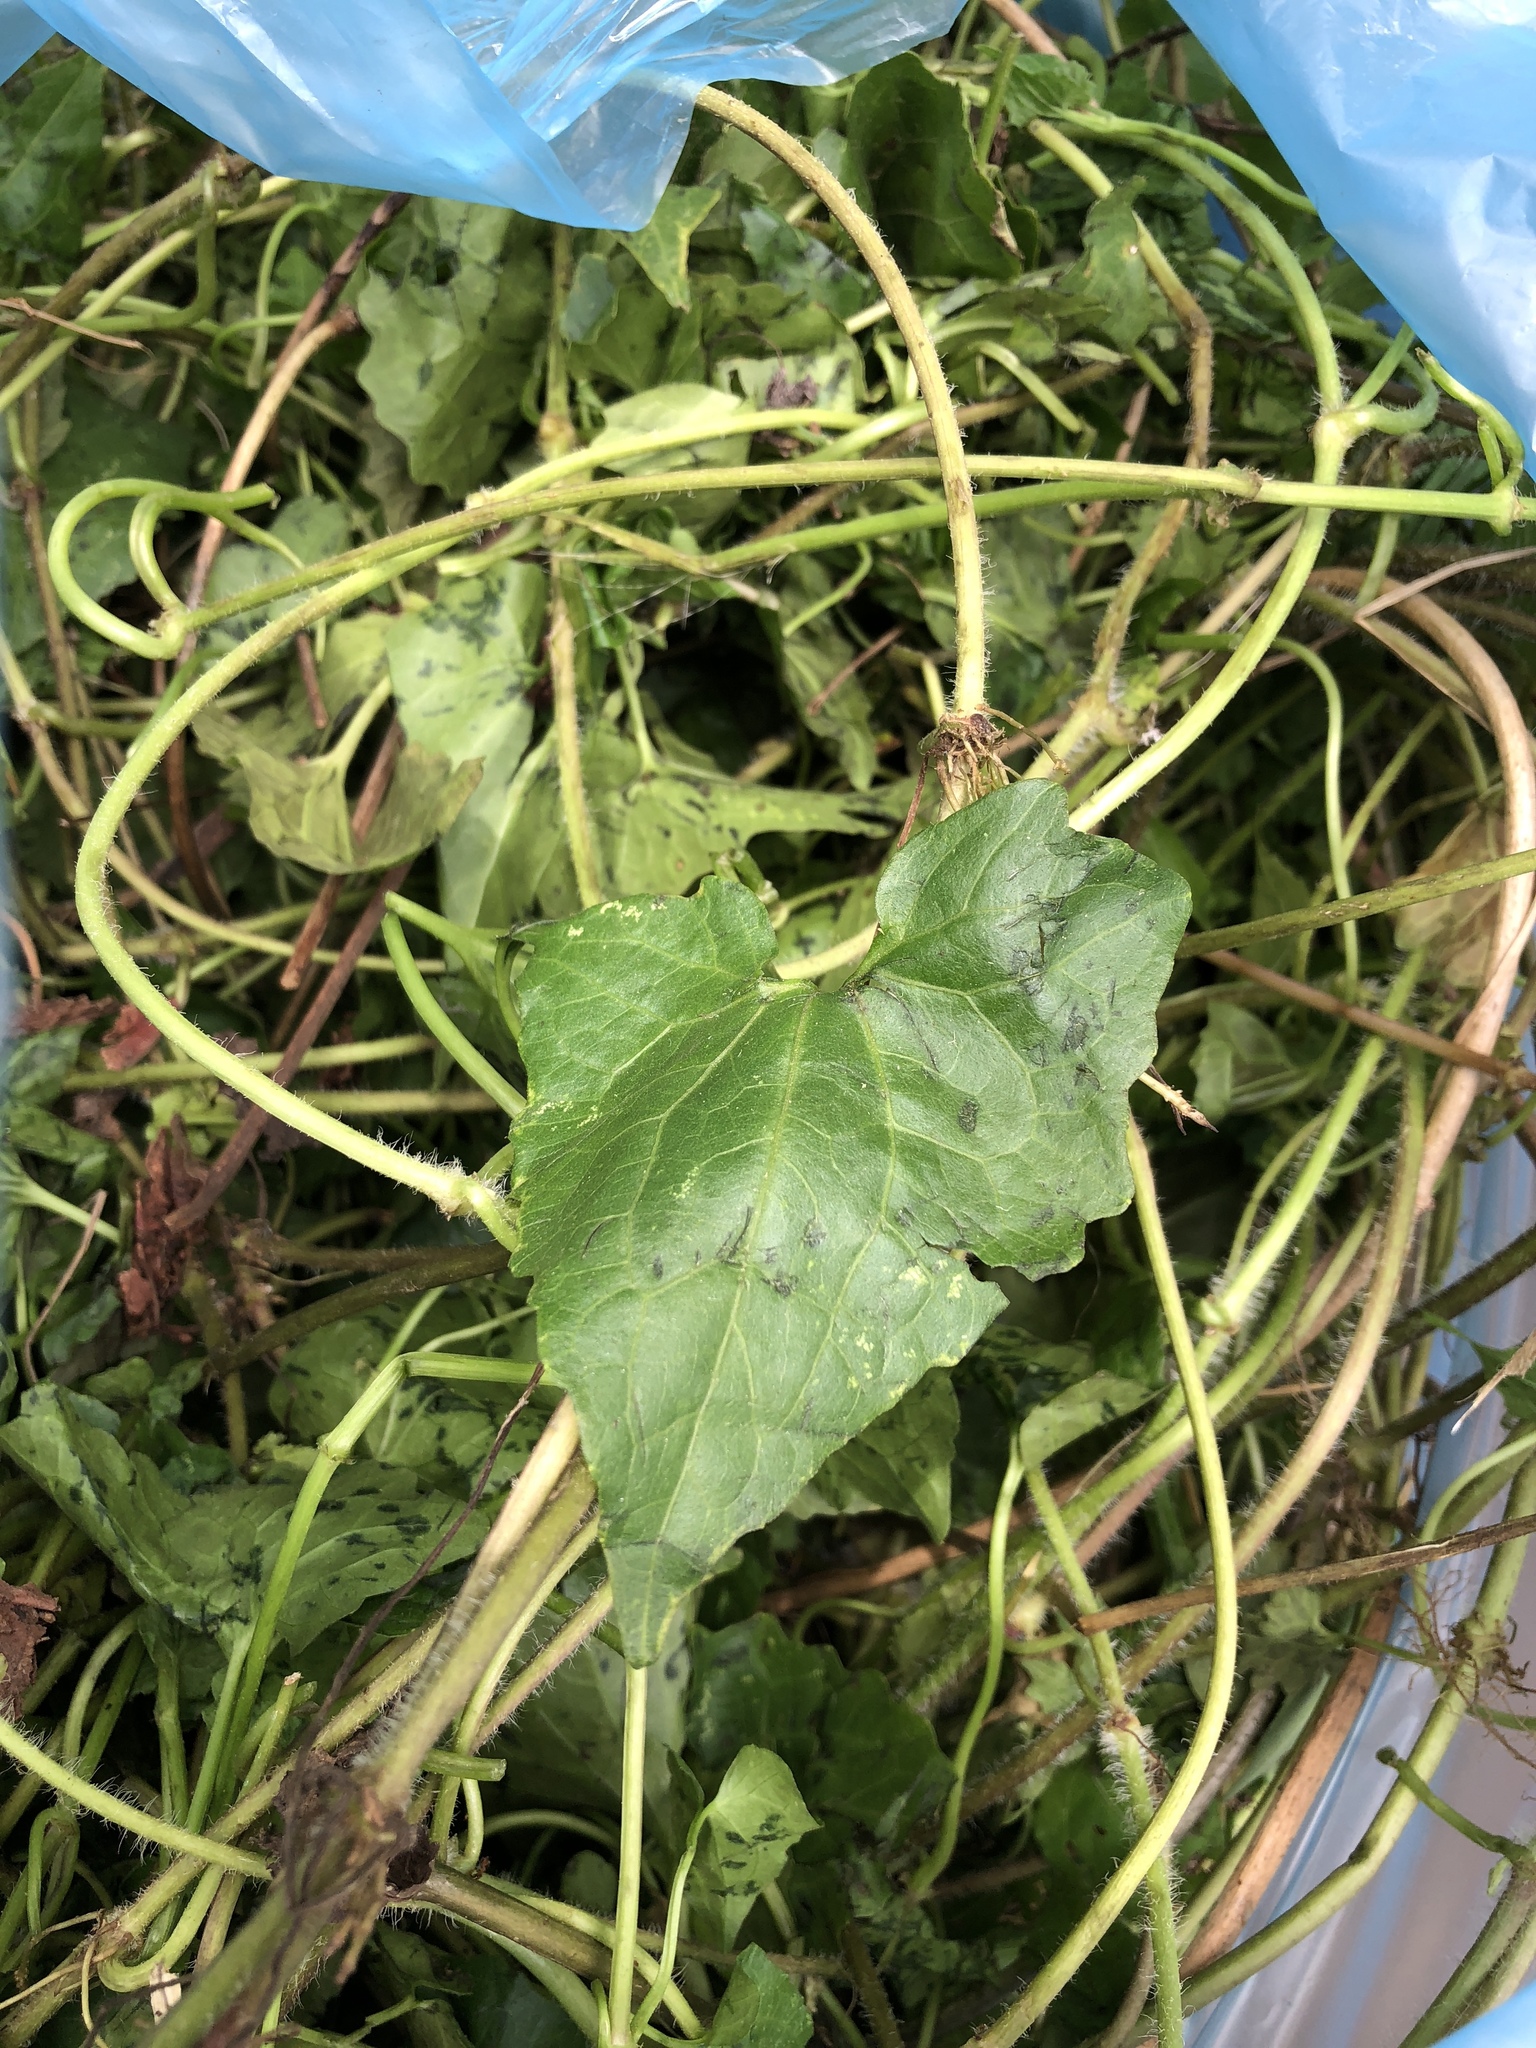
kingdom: Plantae
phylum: Tracheophyta
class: Magnoliopsida
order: Asterales
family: Asteraceae
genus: Mikania
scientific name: Mikania micrantha
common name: Mile-a-minute
